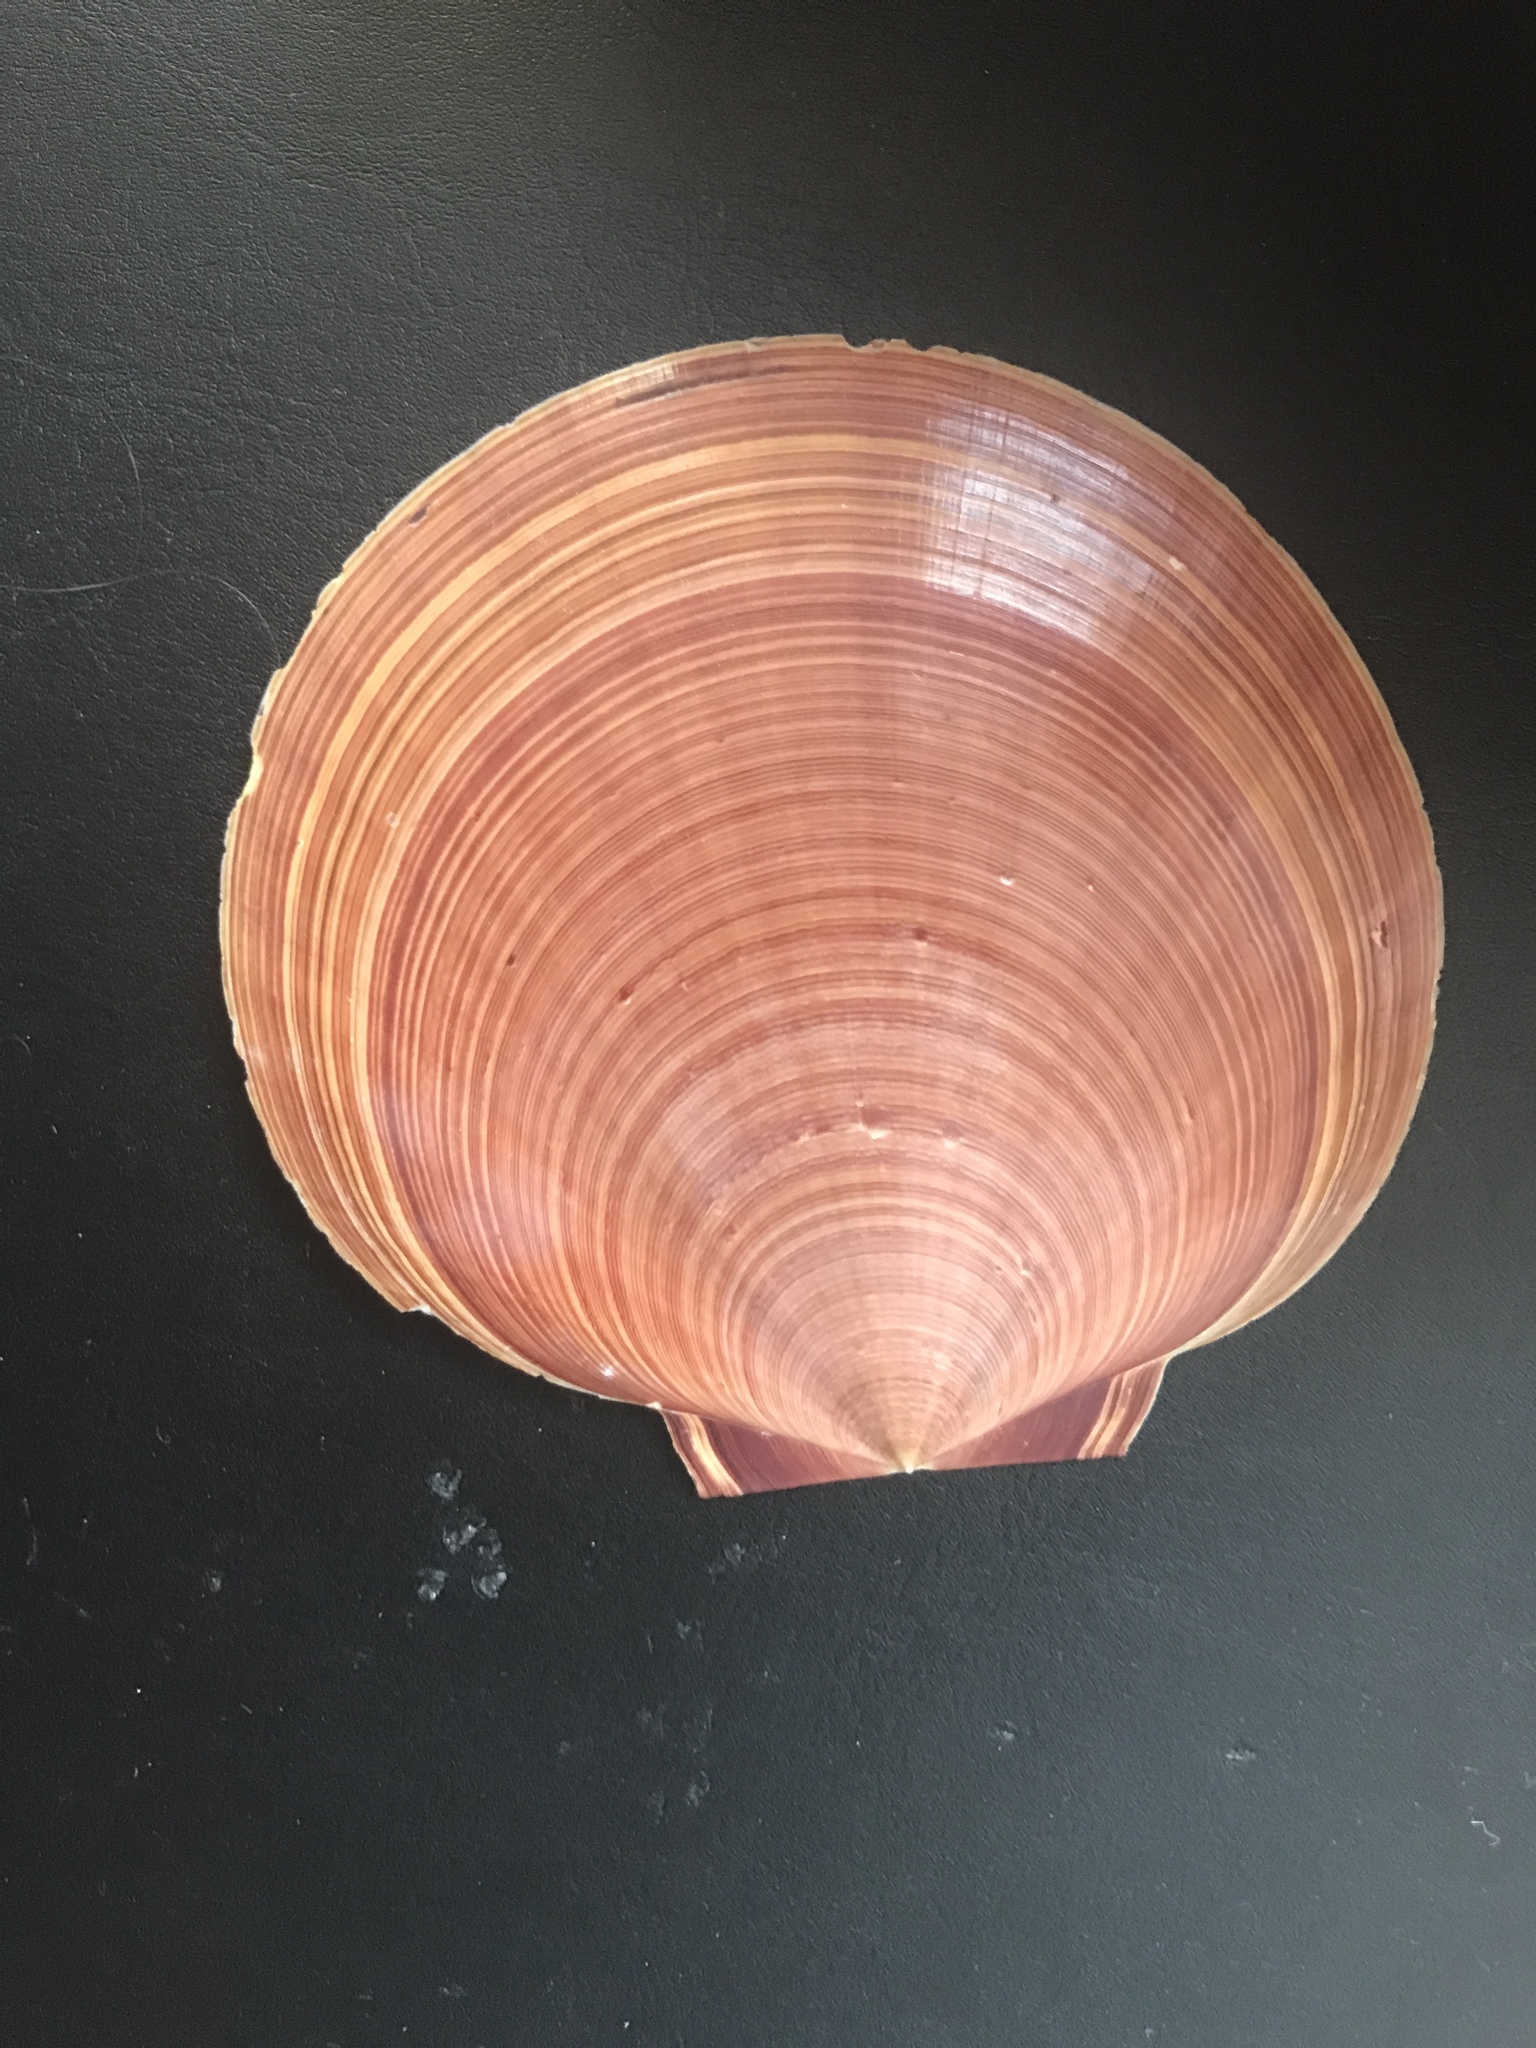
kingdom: Animalia
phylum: Mollusca
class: Bivalvia
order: Pectinida
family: Pectinidae
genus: Amusium
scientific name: Amusium pleuronectes
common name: Asian moon scallop
